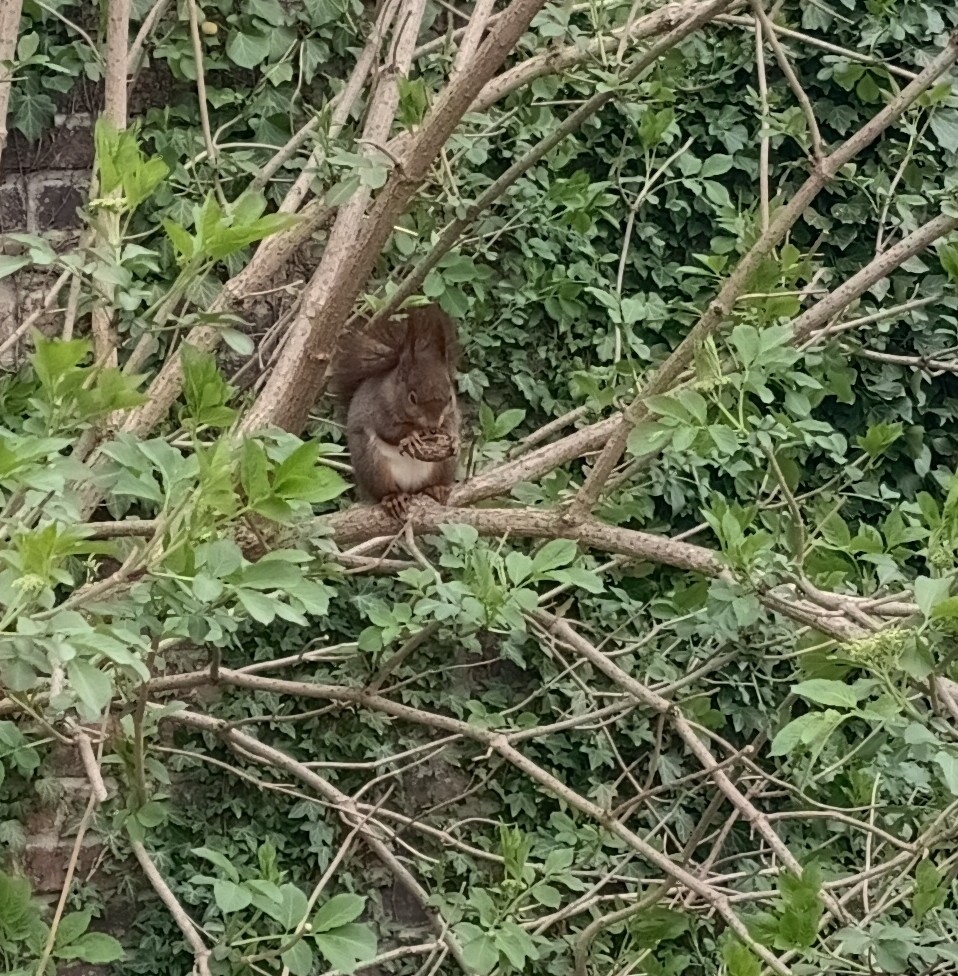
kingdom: Animalia
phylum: Chordata
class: Mammalia
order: Rodentia
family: Sciuridae
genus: Sciurus
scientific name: Sciurus vulgaris
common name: Eurasian red squirrel
